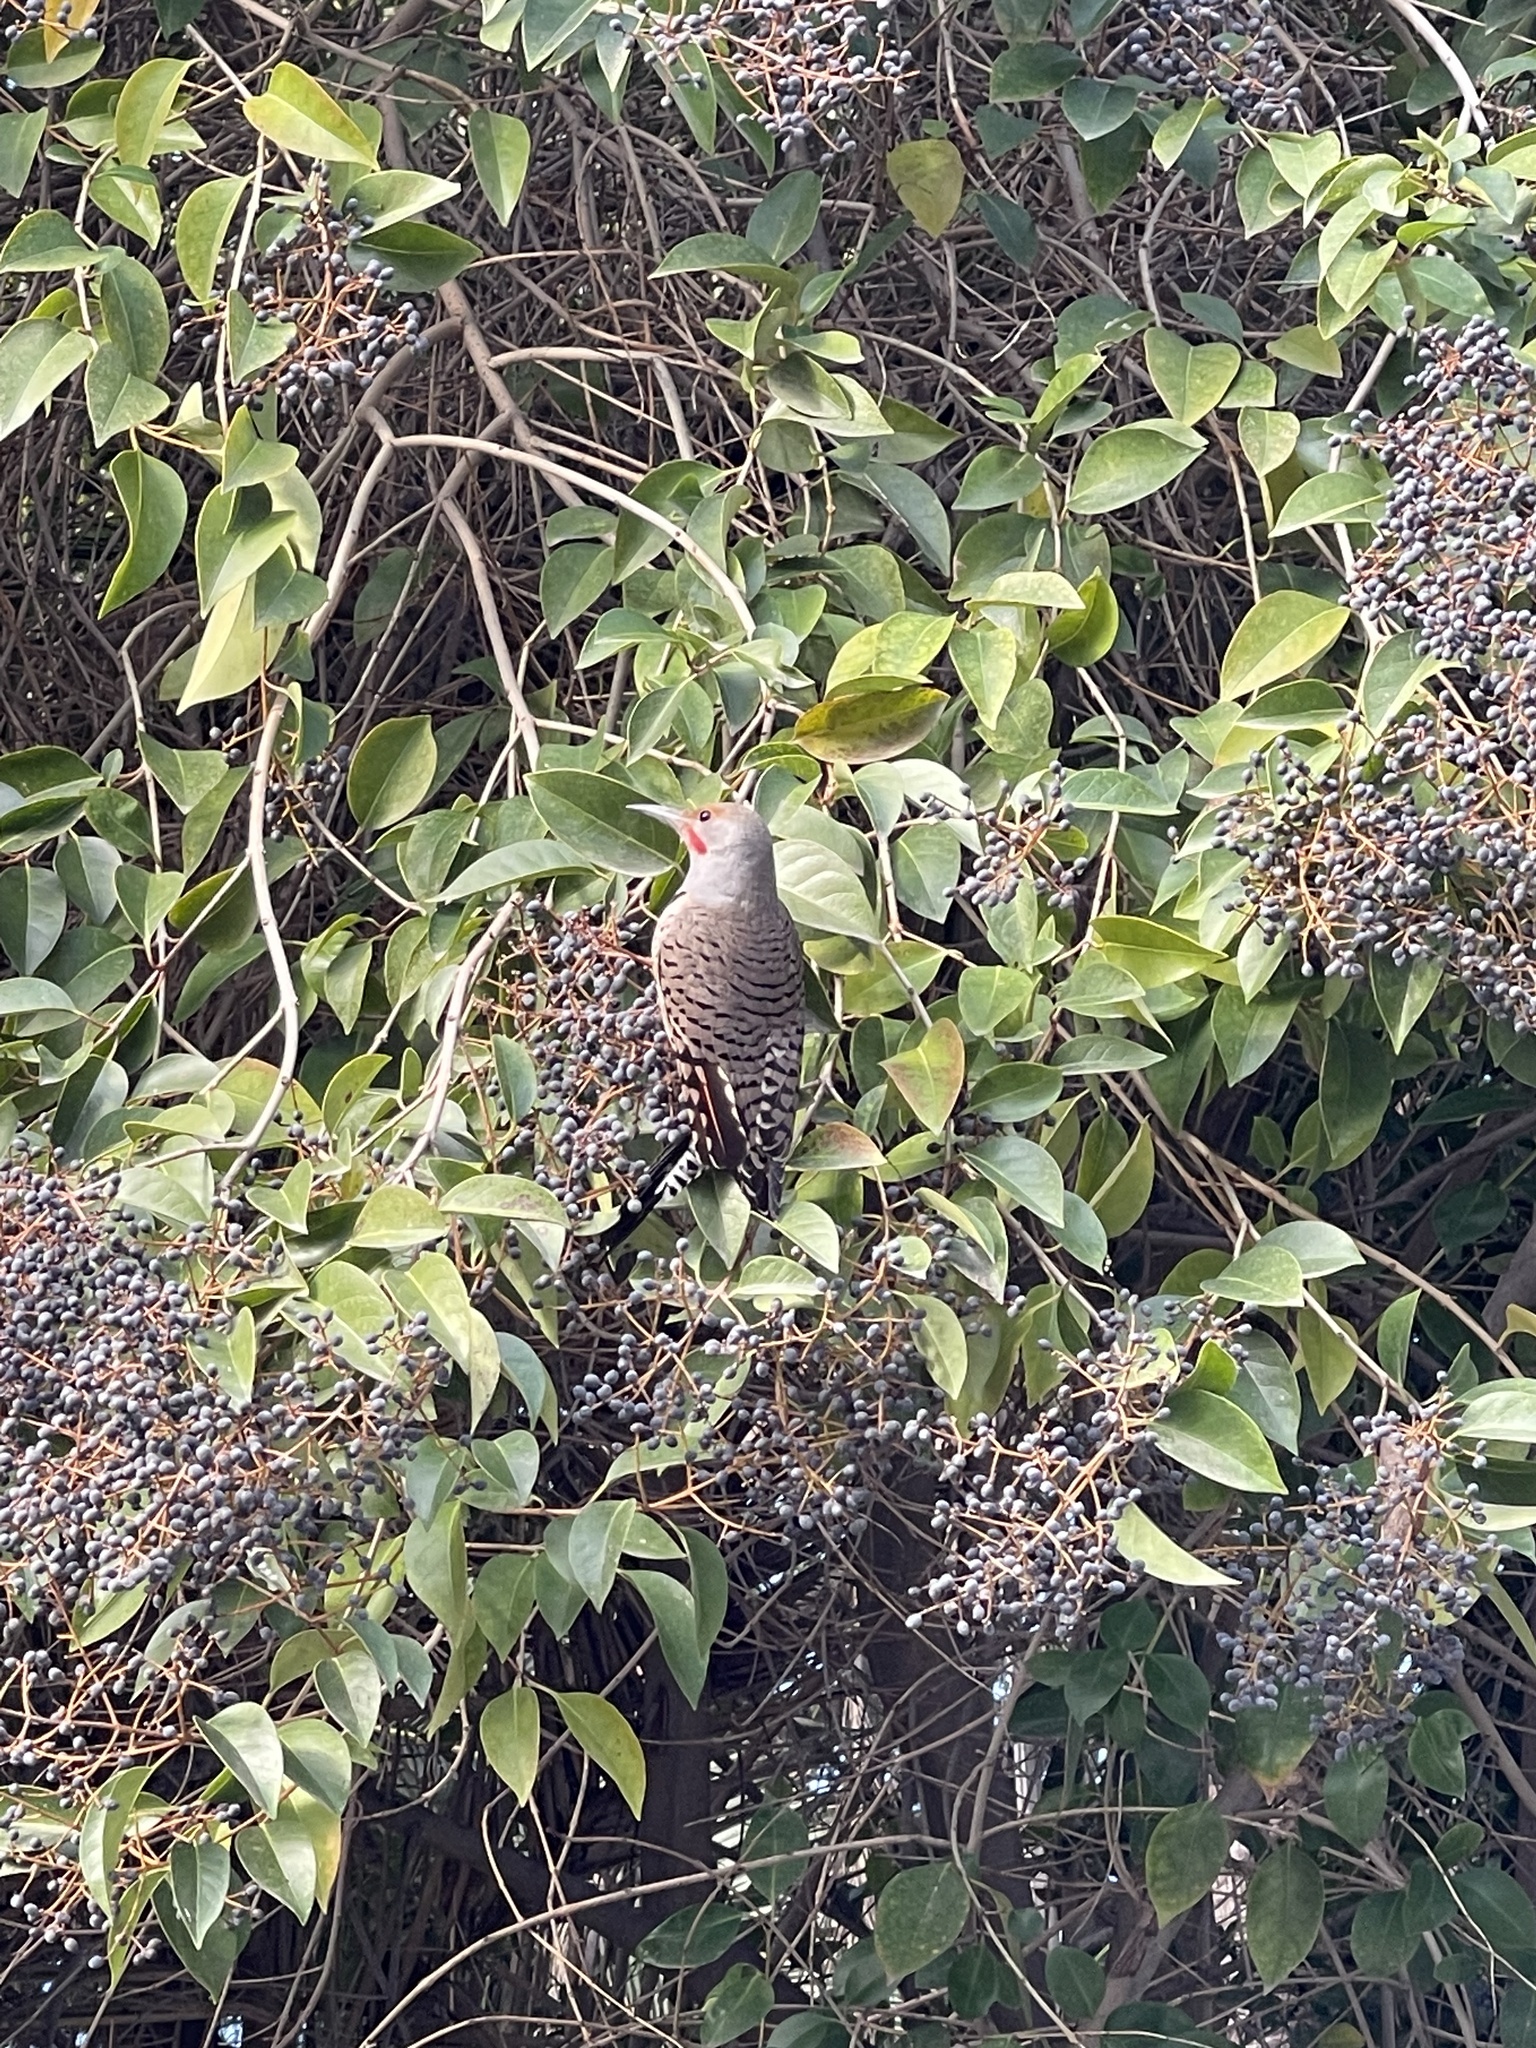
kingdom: Animalia
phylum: Chordata
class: Aves
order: Piciformes
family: Picidae
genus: Colaptes
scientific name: Colaptes auratus
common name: Northern flicker
